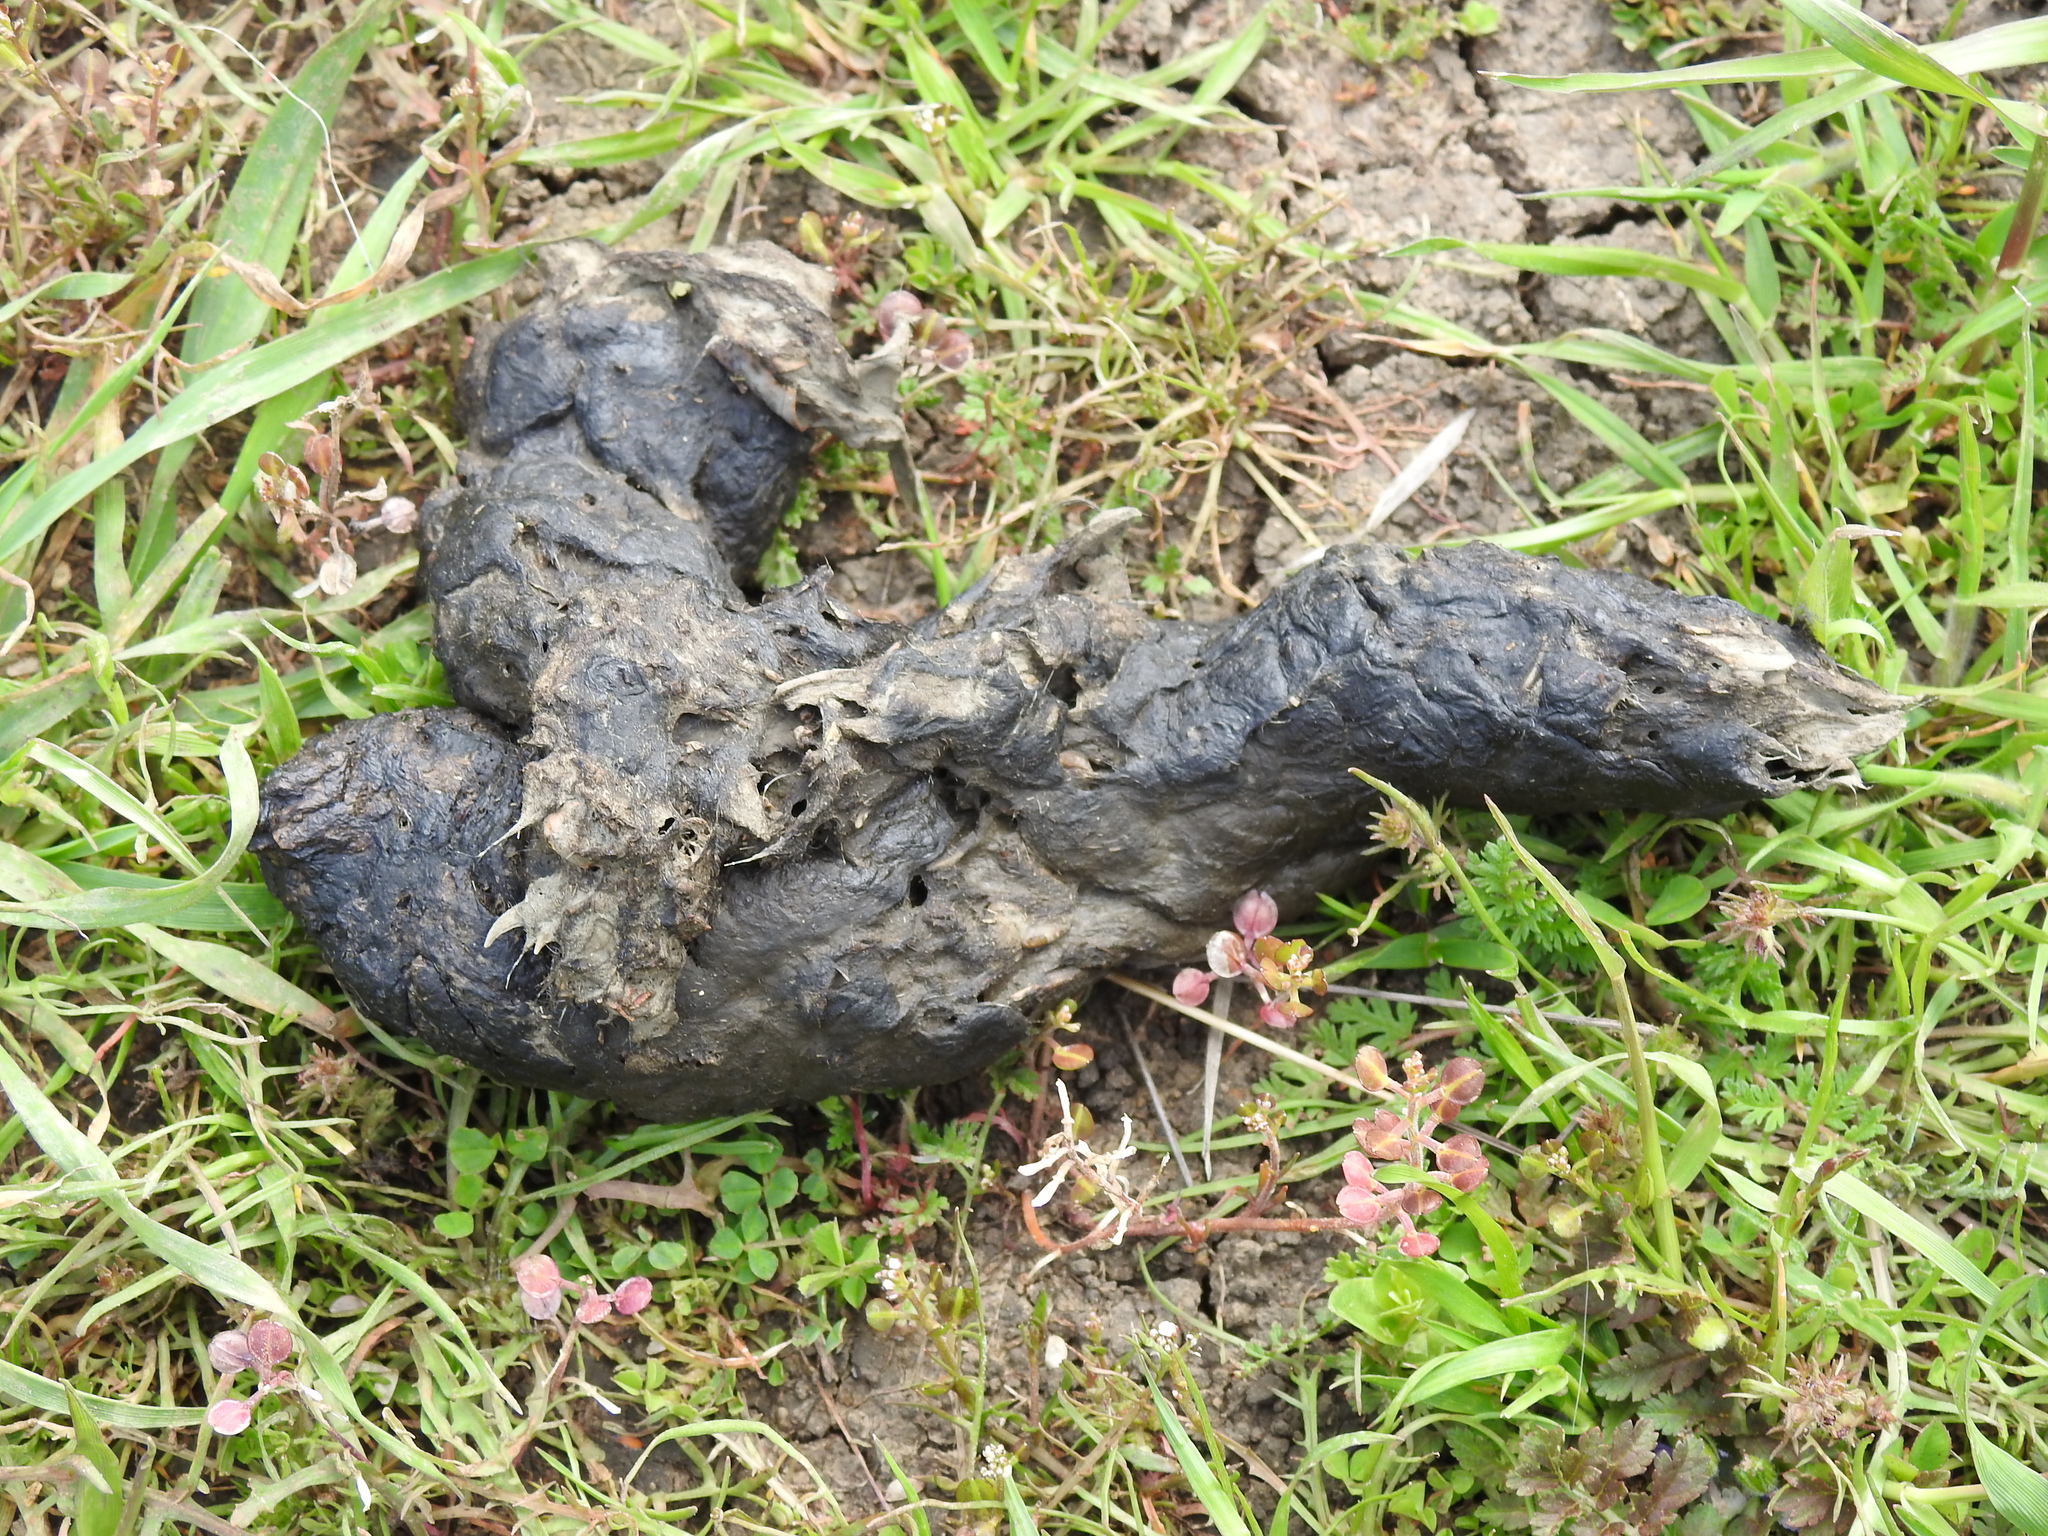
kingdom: Animalia
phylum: Chordata
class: Mammalia
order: Carnivora
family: Canidae
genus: Canis
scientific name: Canis latrans
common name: Coyote
